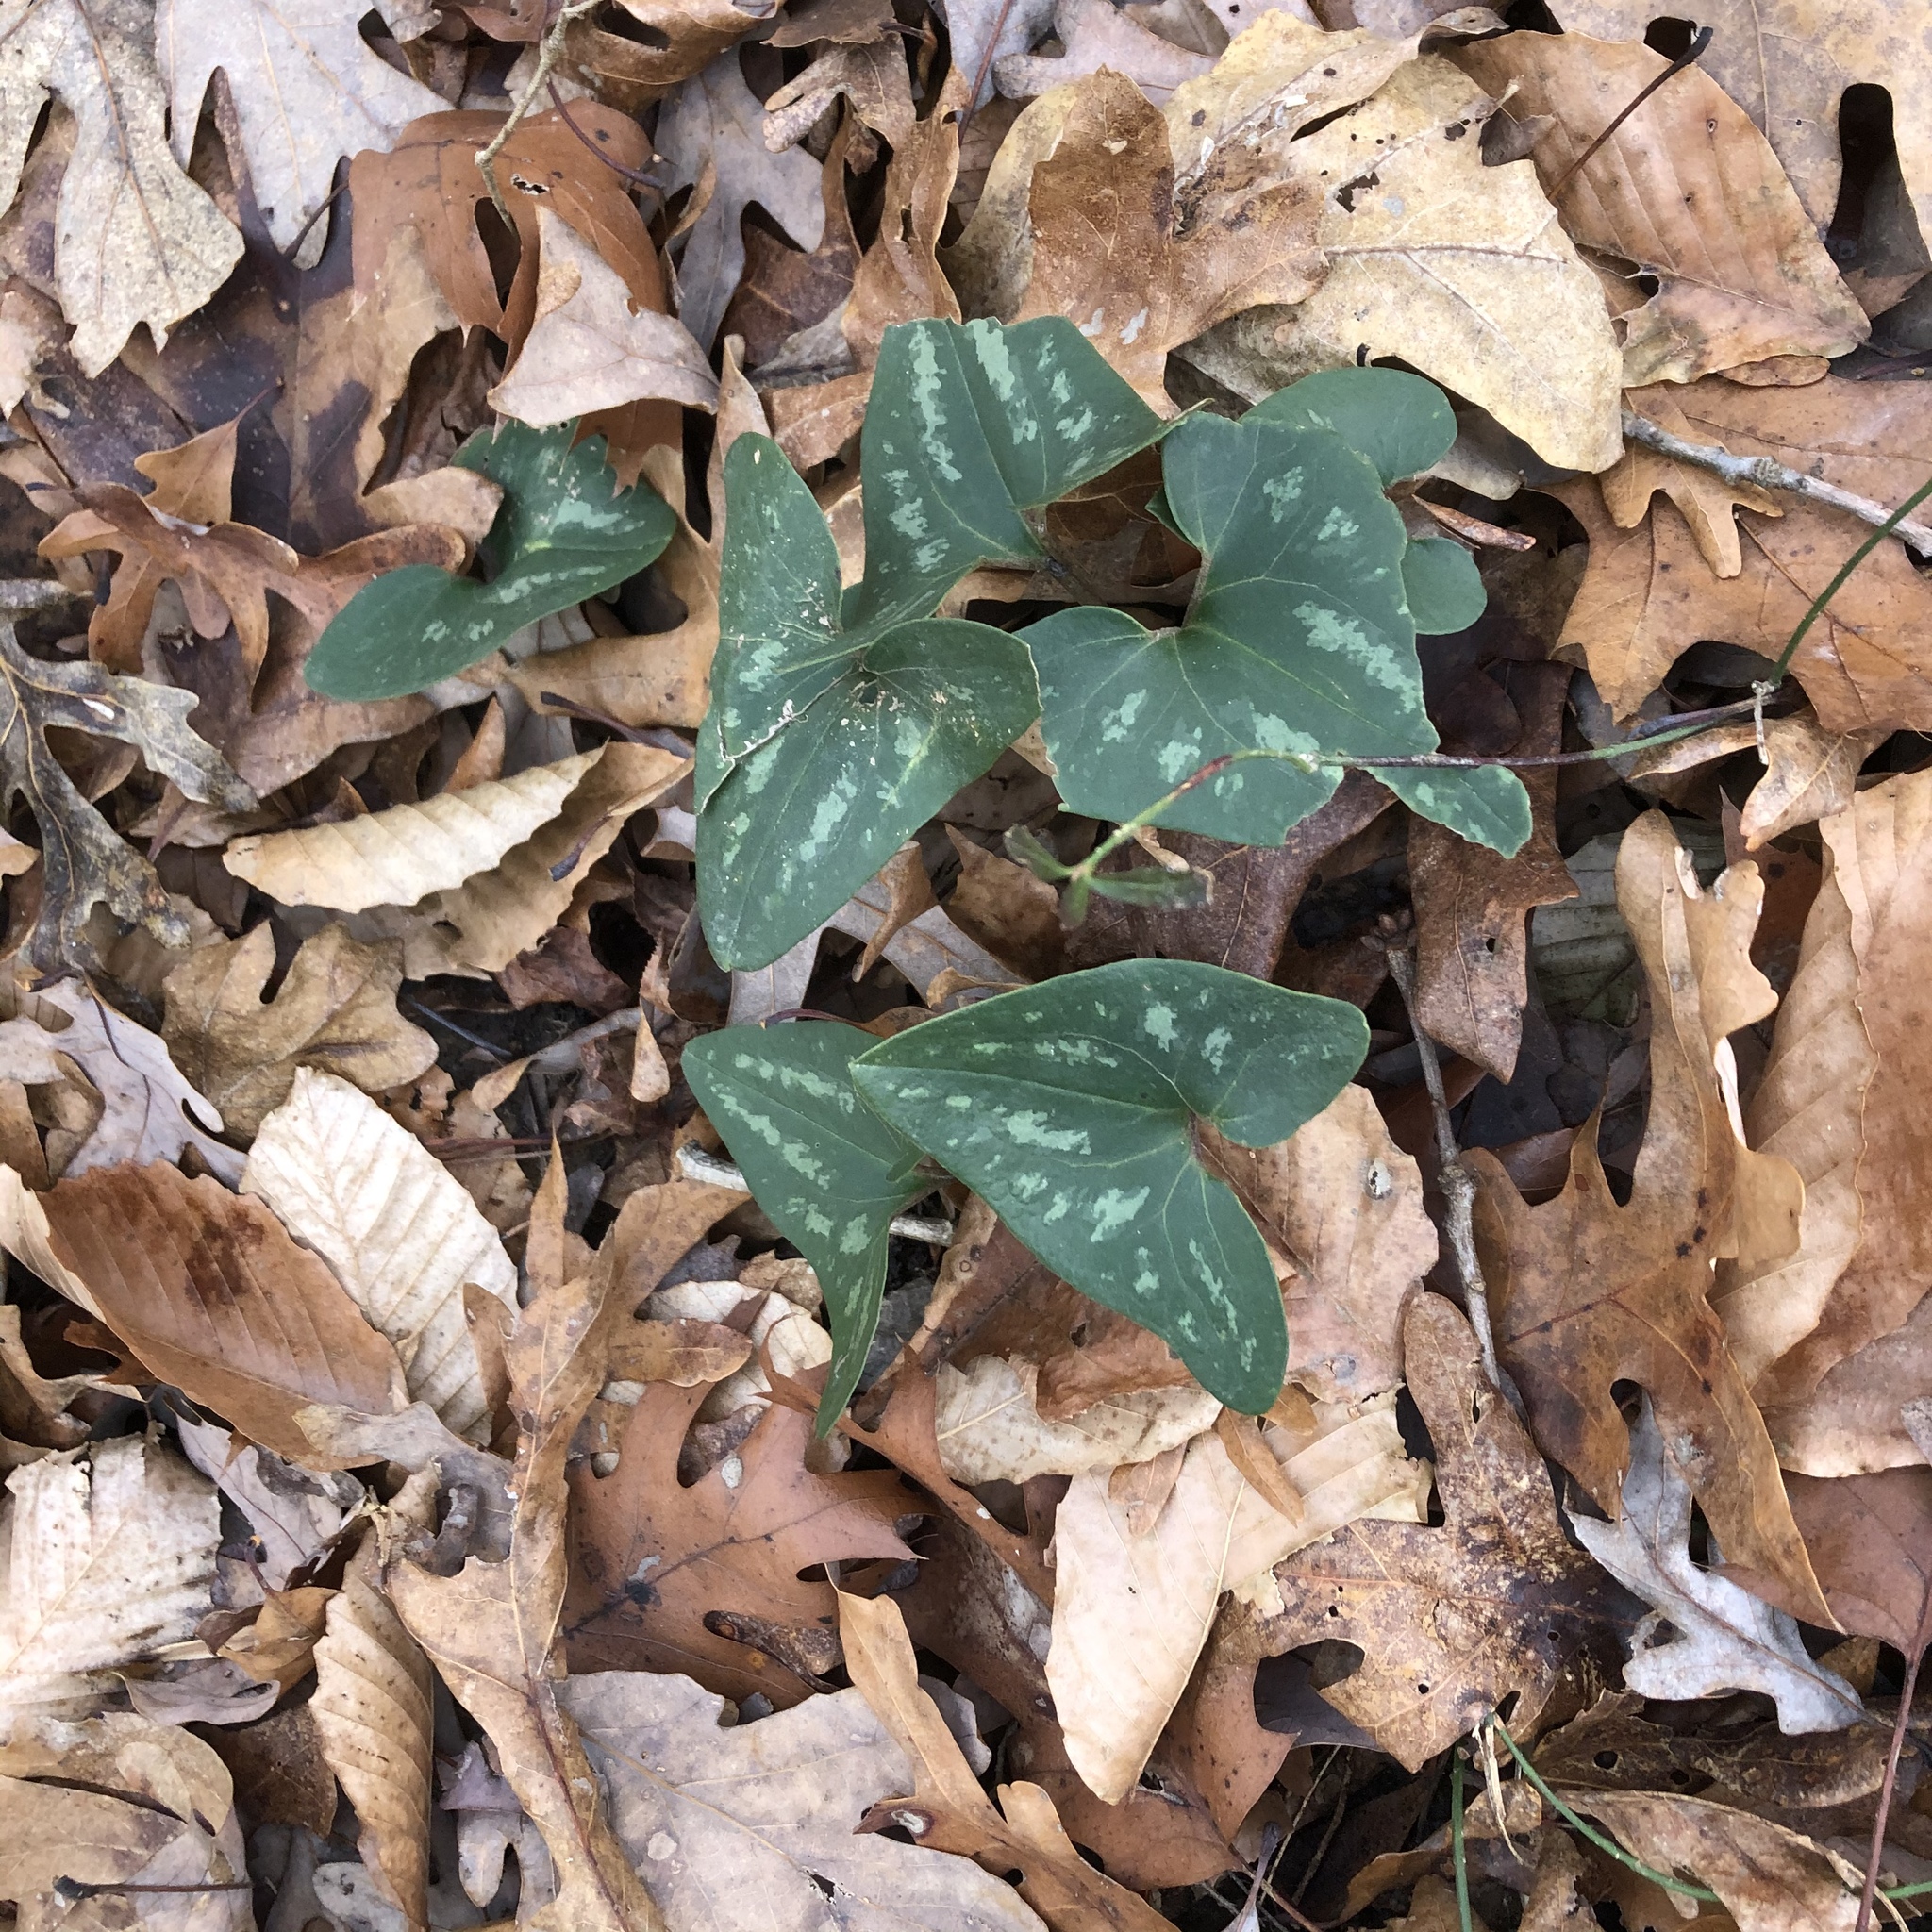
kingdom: Plantae
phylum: Tracheophyta
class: Magnoliopsida
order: Piperales
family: Aristolochiaceae
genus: Hexastylis
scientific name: Hexastylis arifolia
